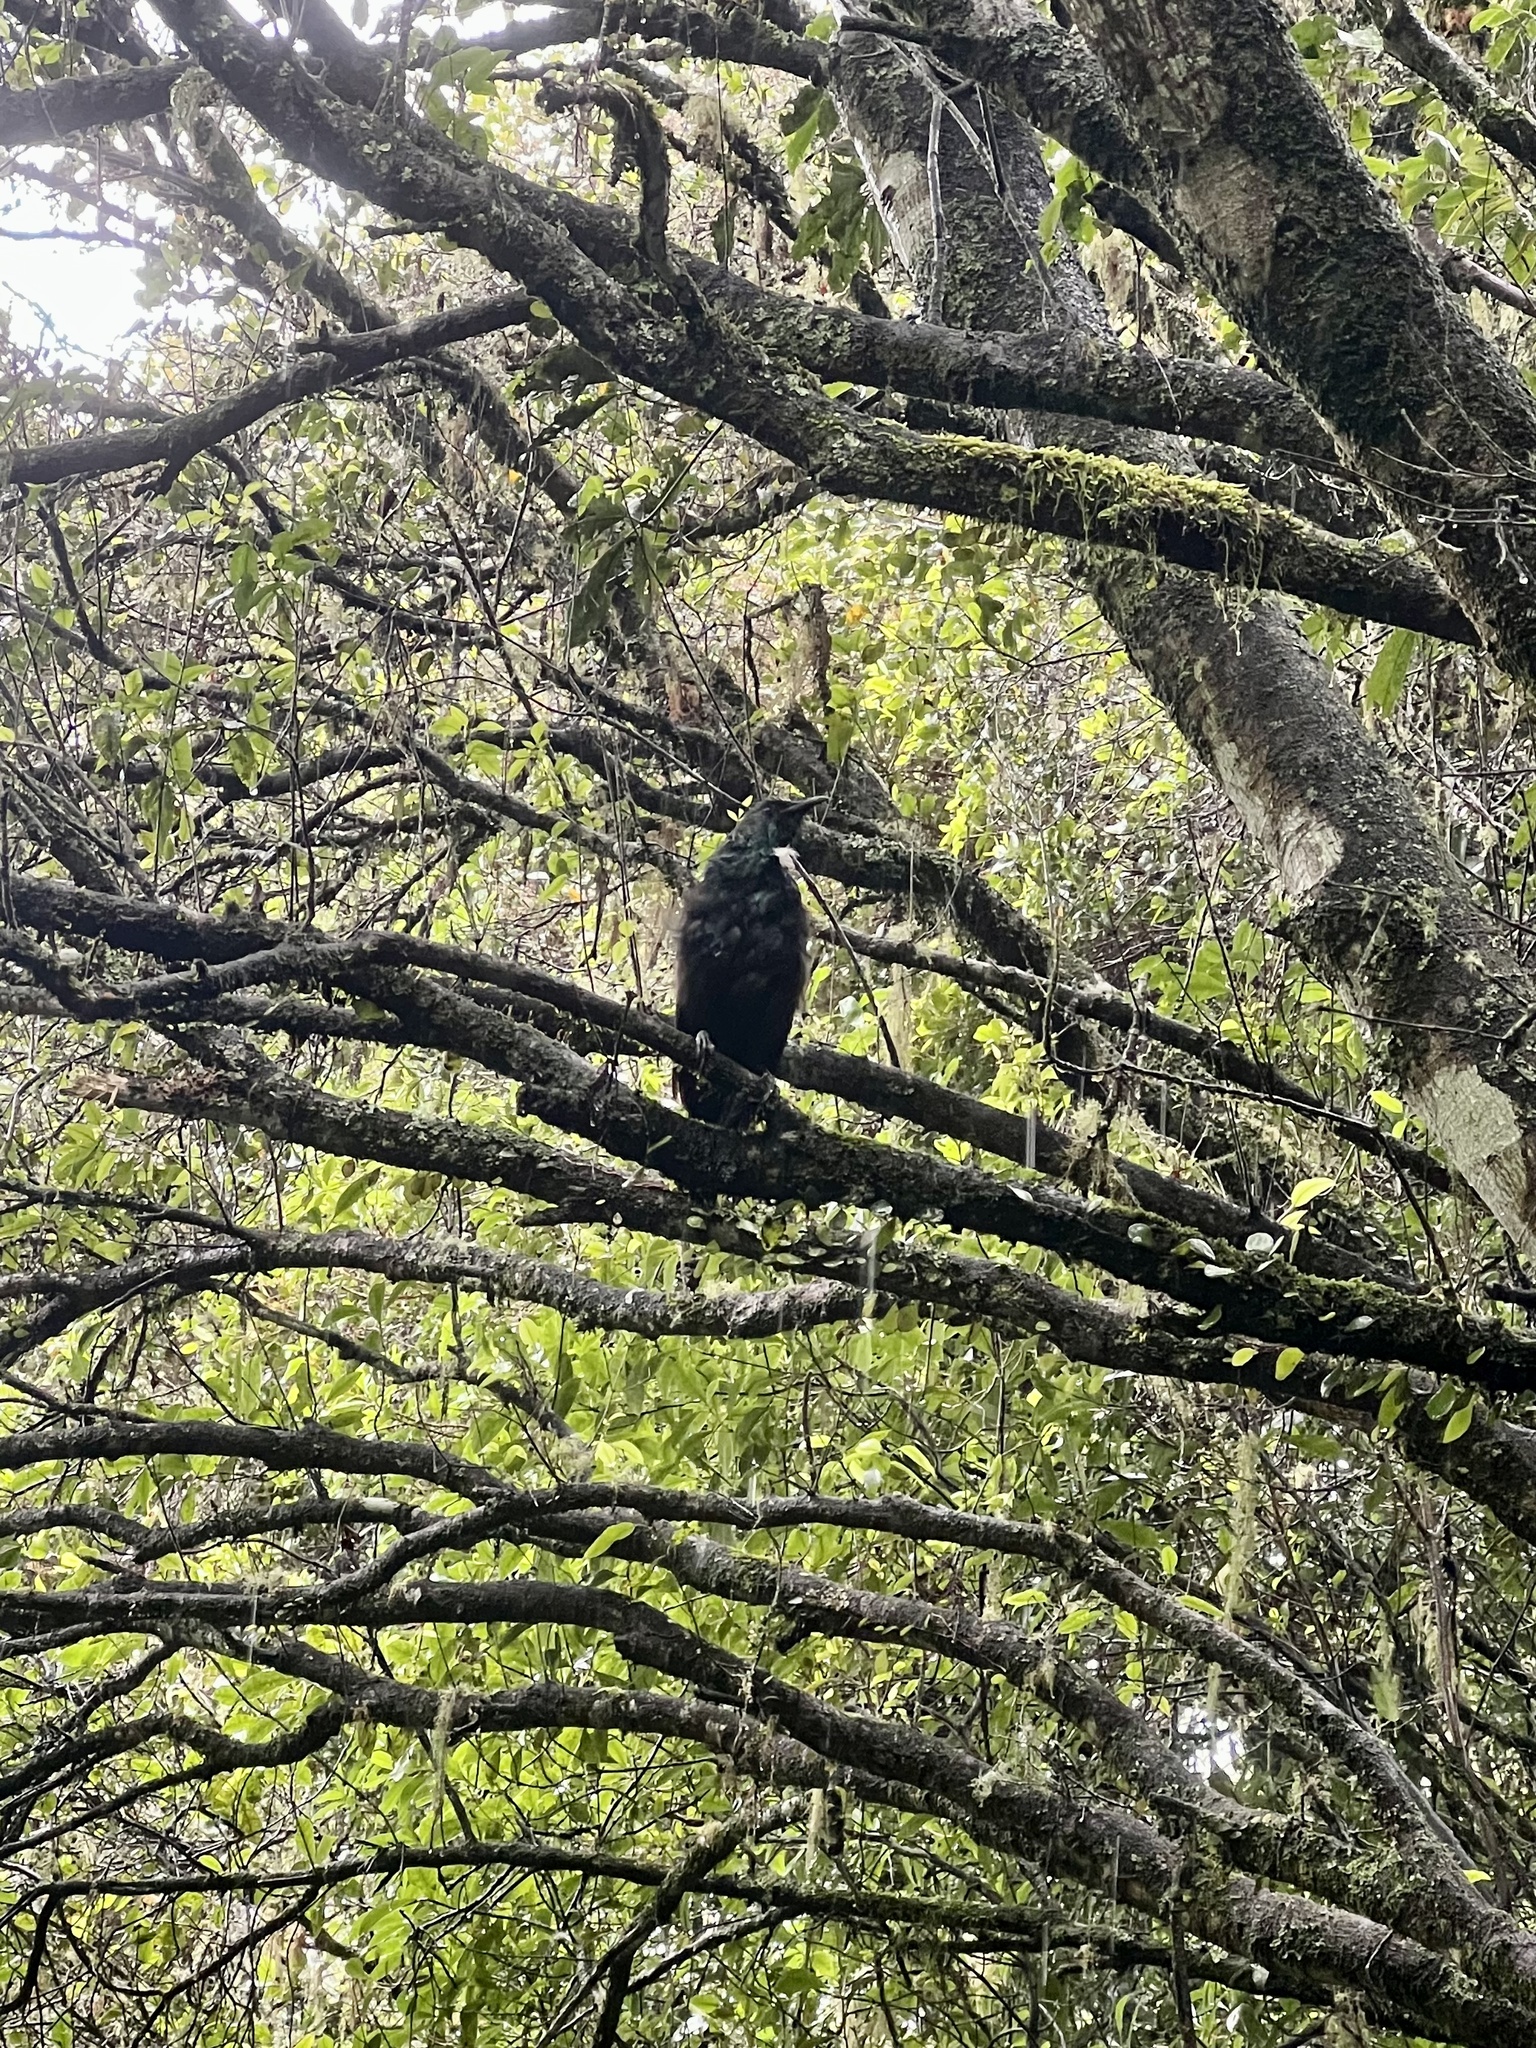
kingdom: Animalia
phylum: Chordata
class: Aves
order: Passeriformes
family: Meliphagidae
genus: Prosthemadera
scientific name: Prosthemadera novaeseelandiae
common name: Tui
